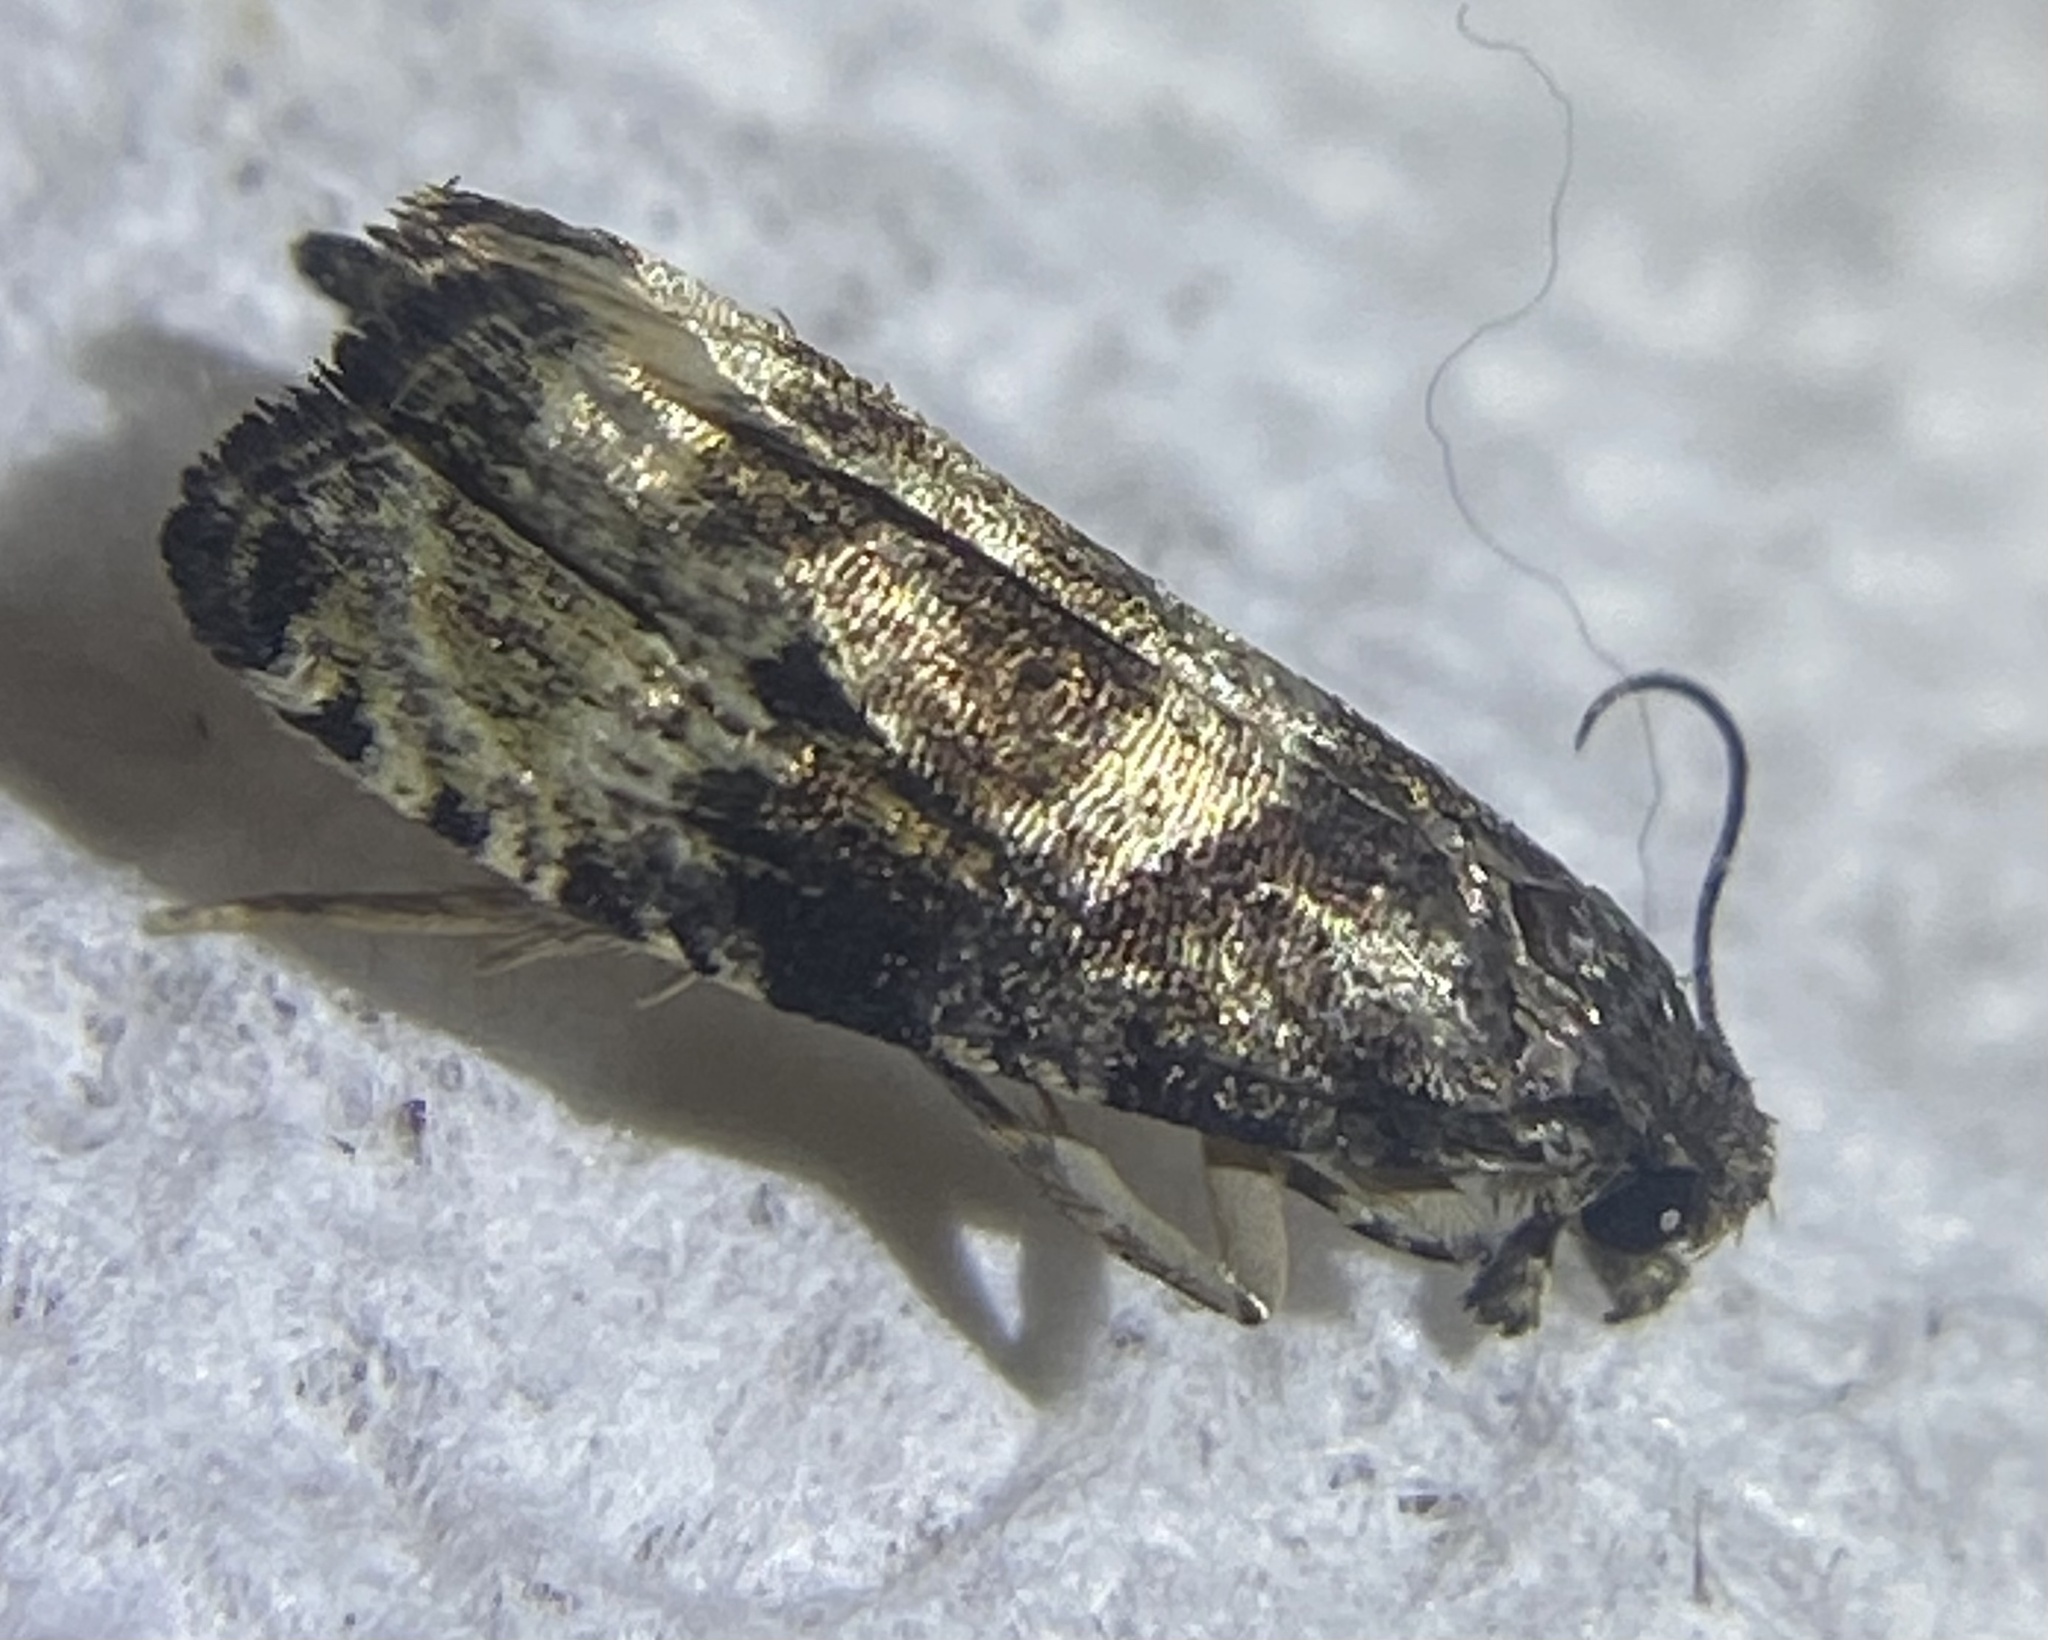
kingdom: Animalia
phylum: Arthropoda
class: Insecta
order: Lepidoptera
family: Tortricidae
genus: Hulda
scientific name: Hulda impudens
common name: Impudent hulda moth
